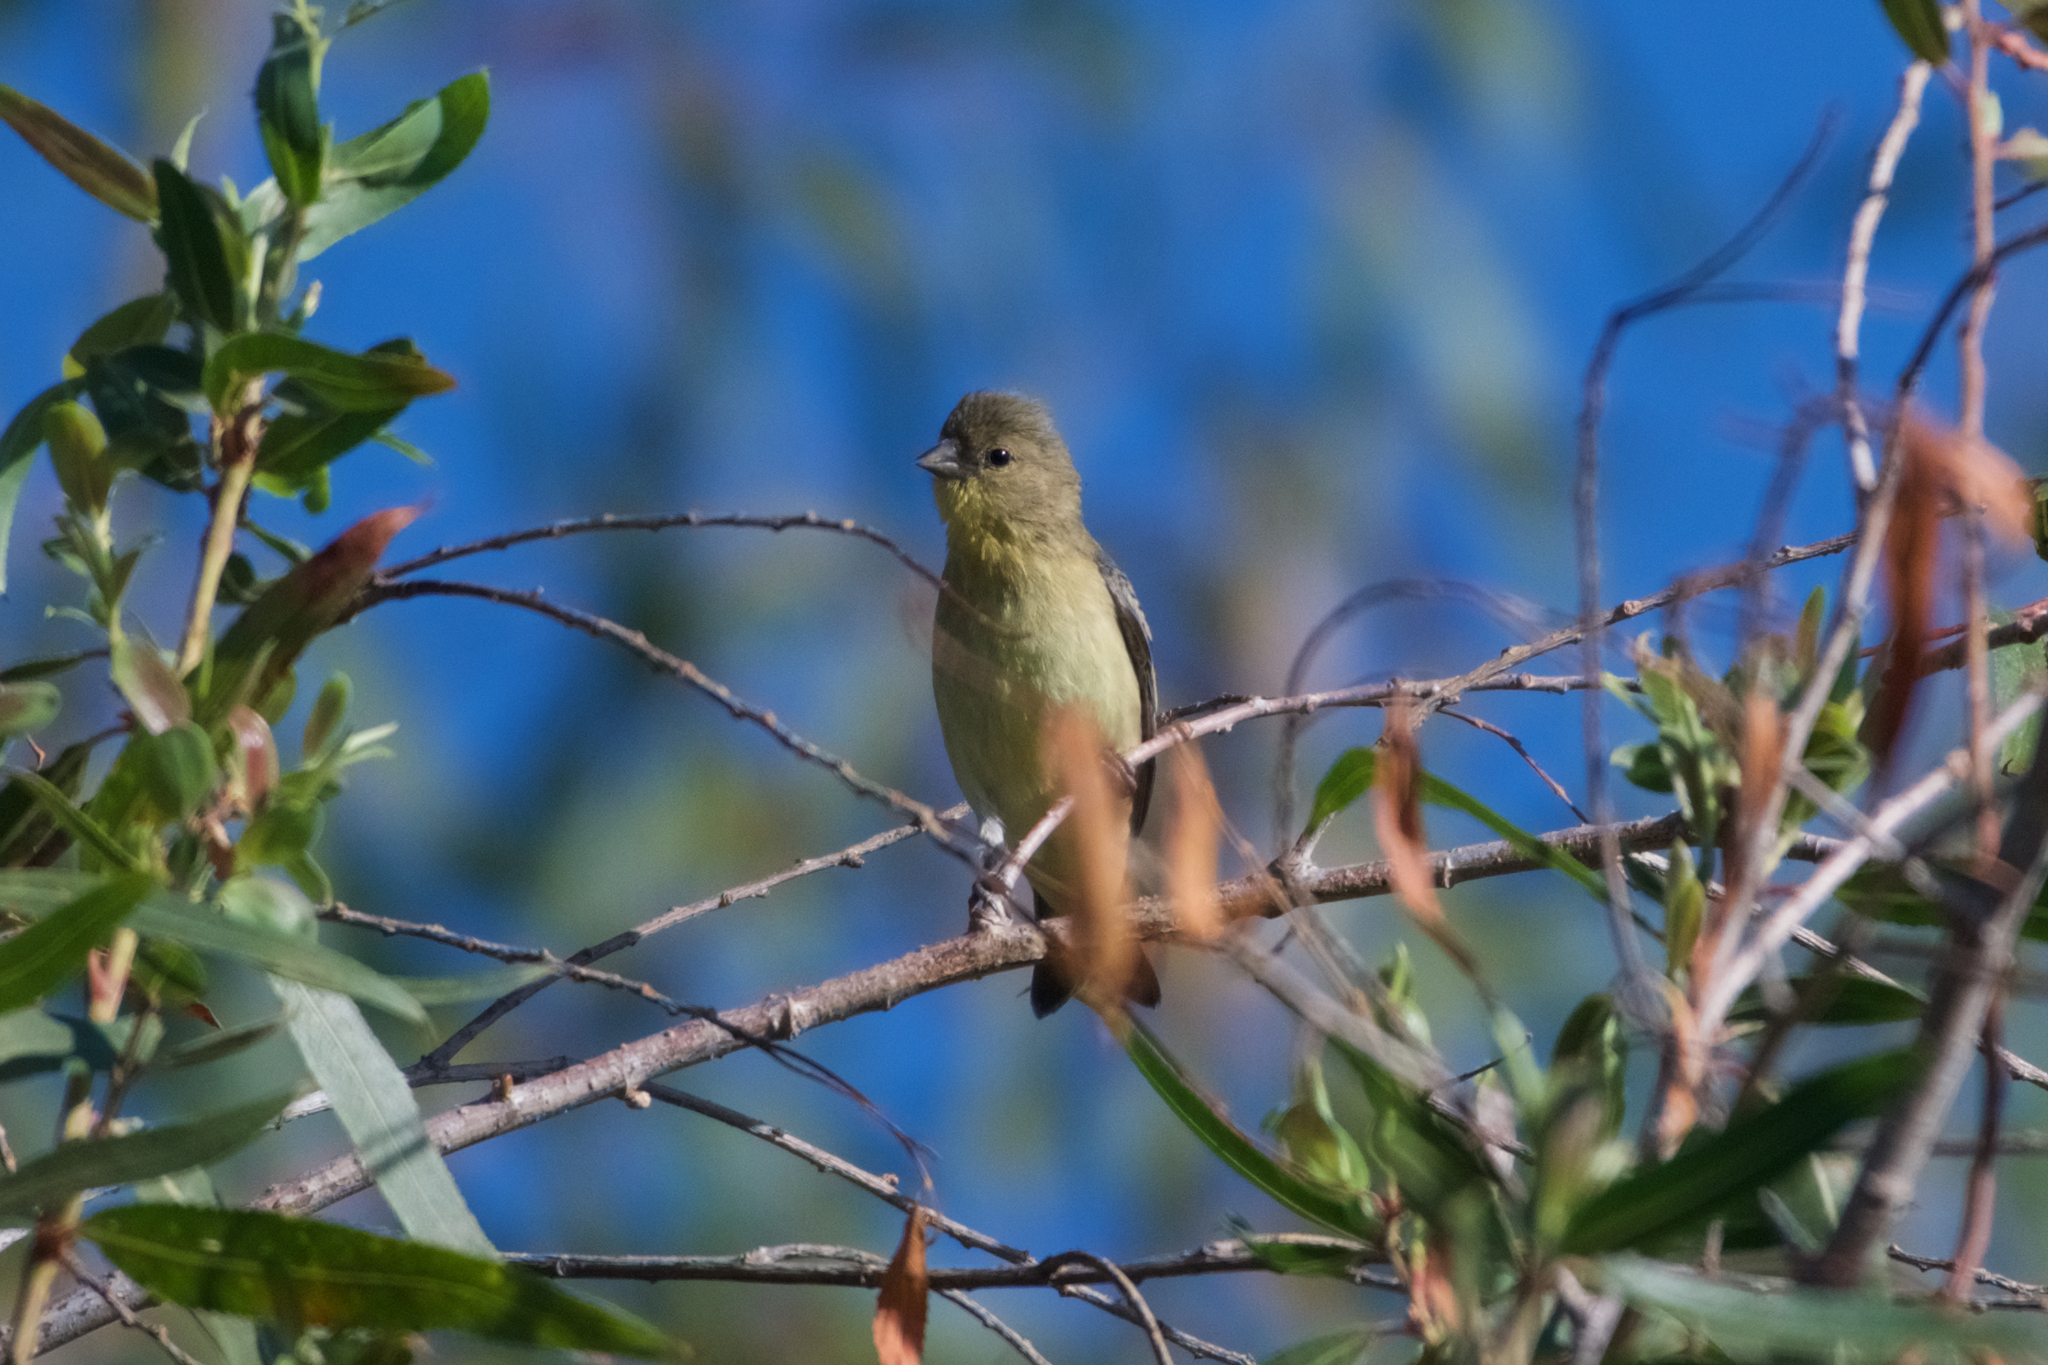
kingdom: Animalia
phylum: Chordata
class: Aves
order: Passeriformes
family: Fringillidae
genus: Spinus
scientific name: Spinus psaltria
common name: Lesser goldfinch
